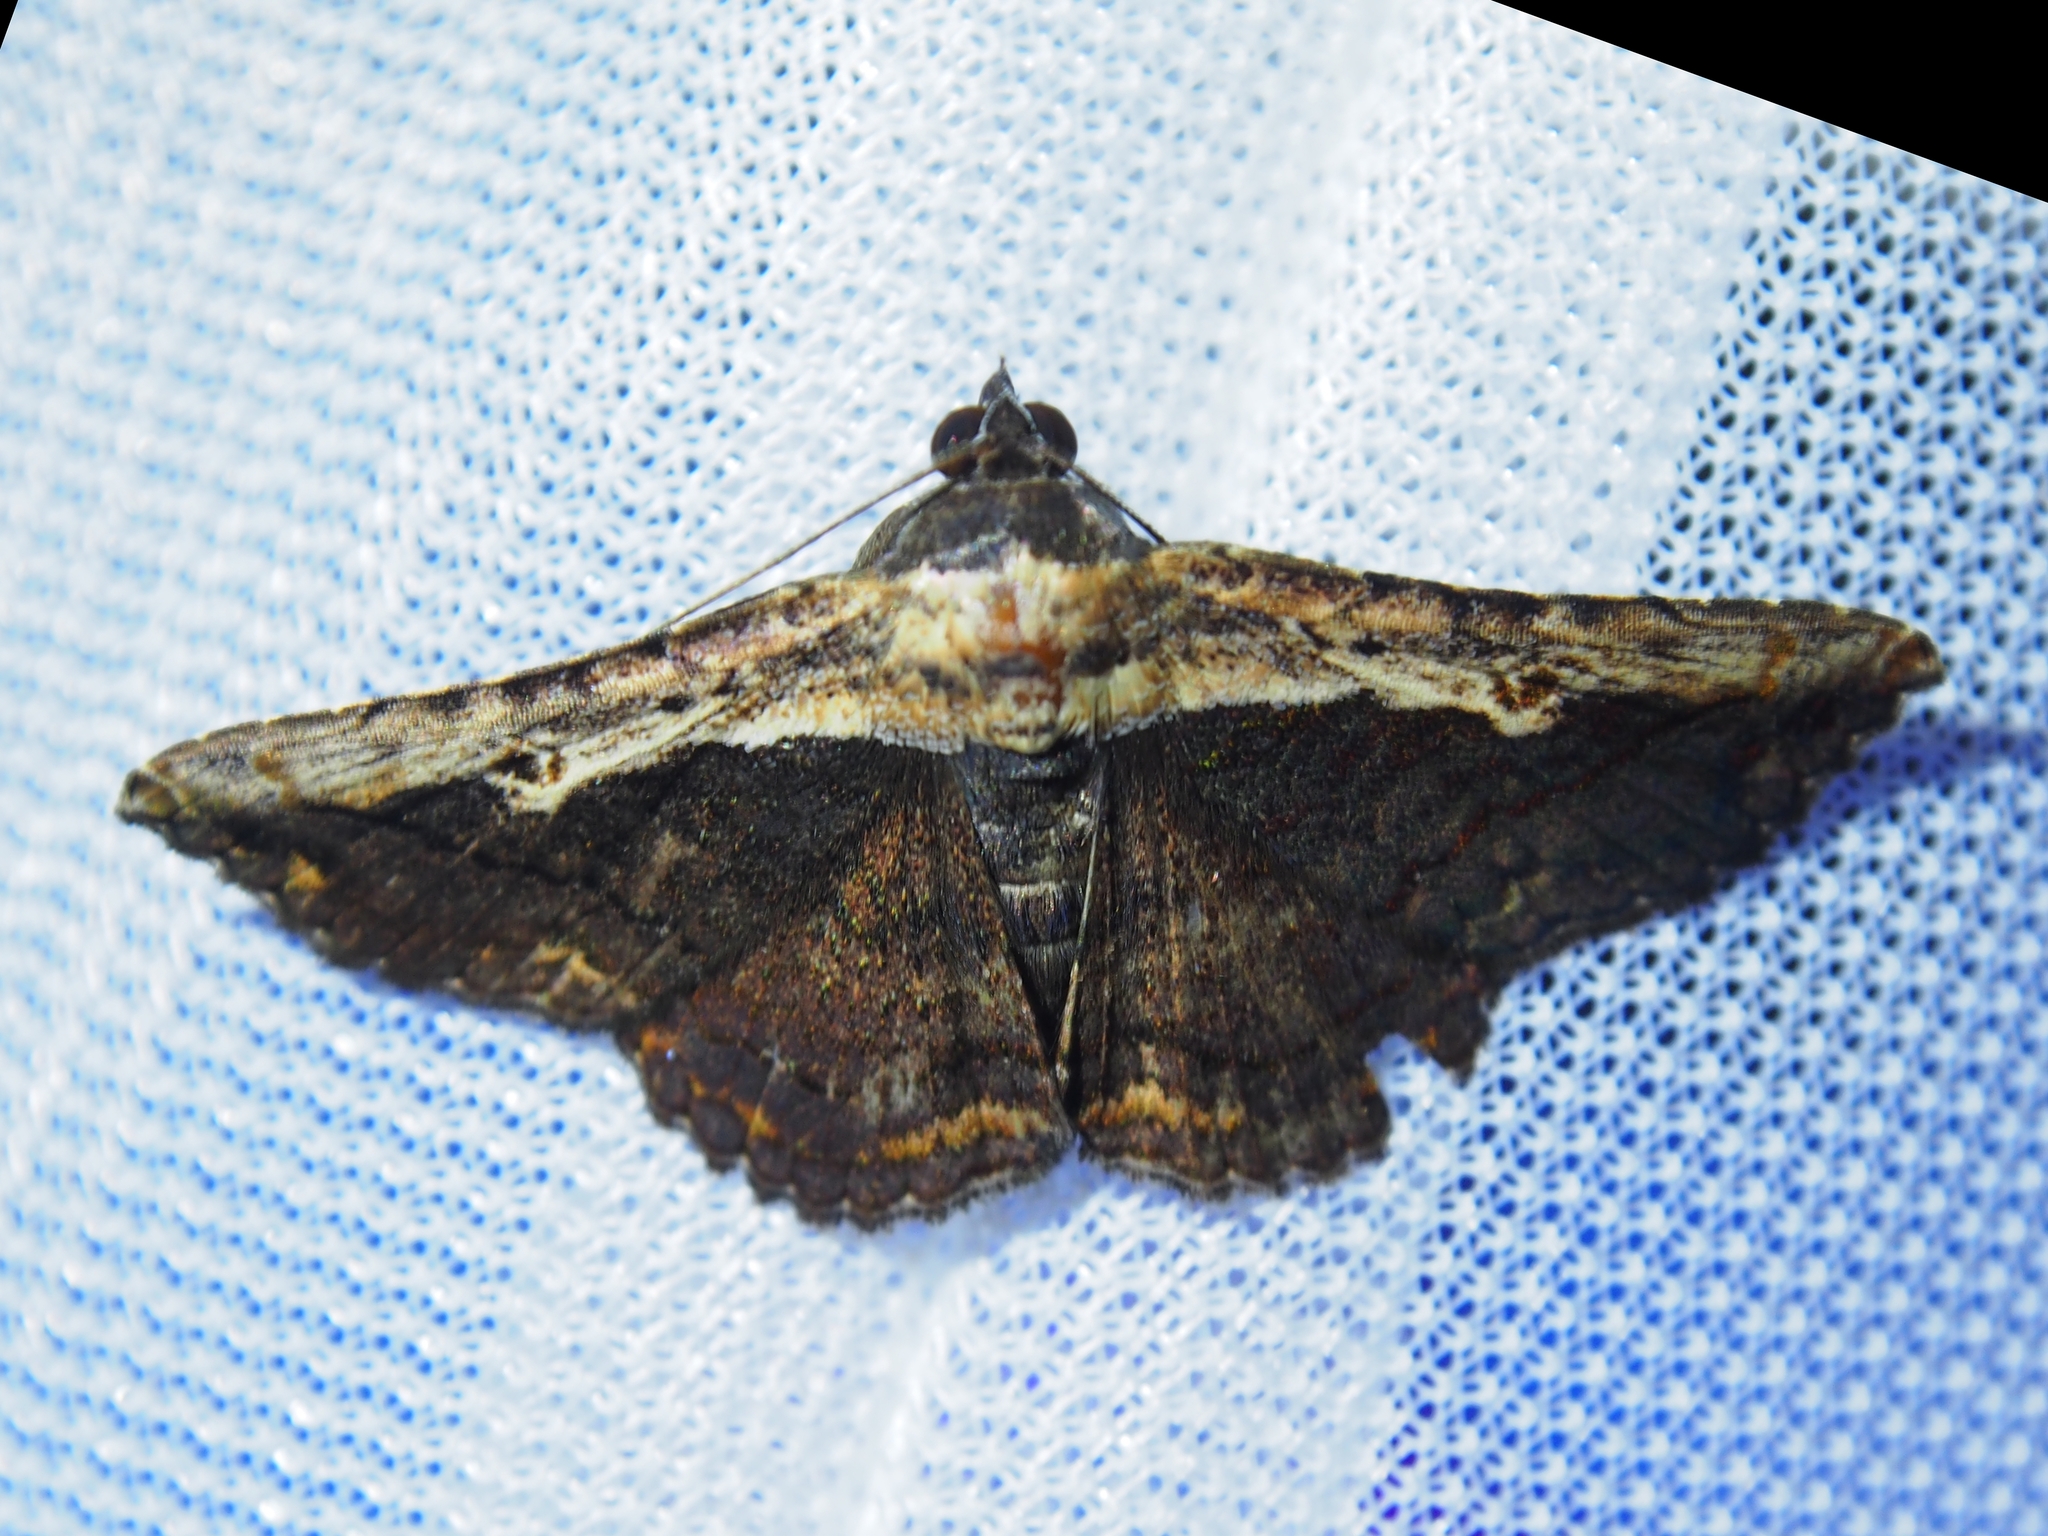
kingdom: Animalia
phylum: Arthropoda
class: Insecta
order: Lepidoptera
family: Erebidae
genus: Selenisa
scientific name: Selenisa sueroides
